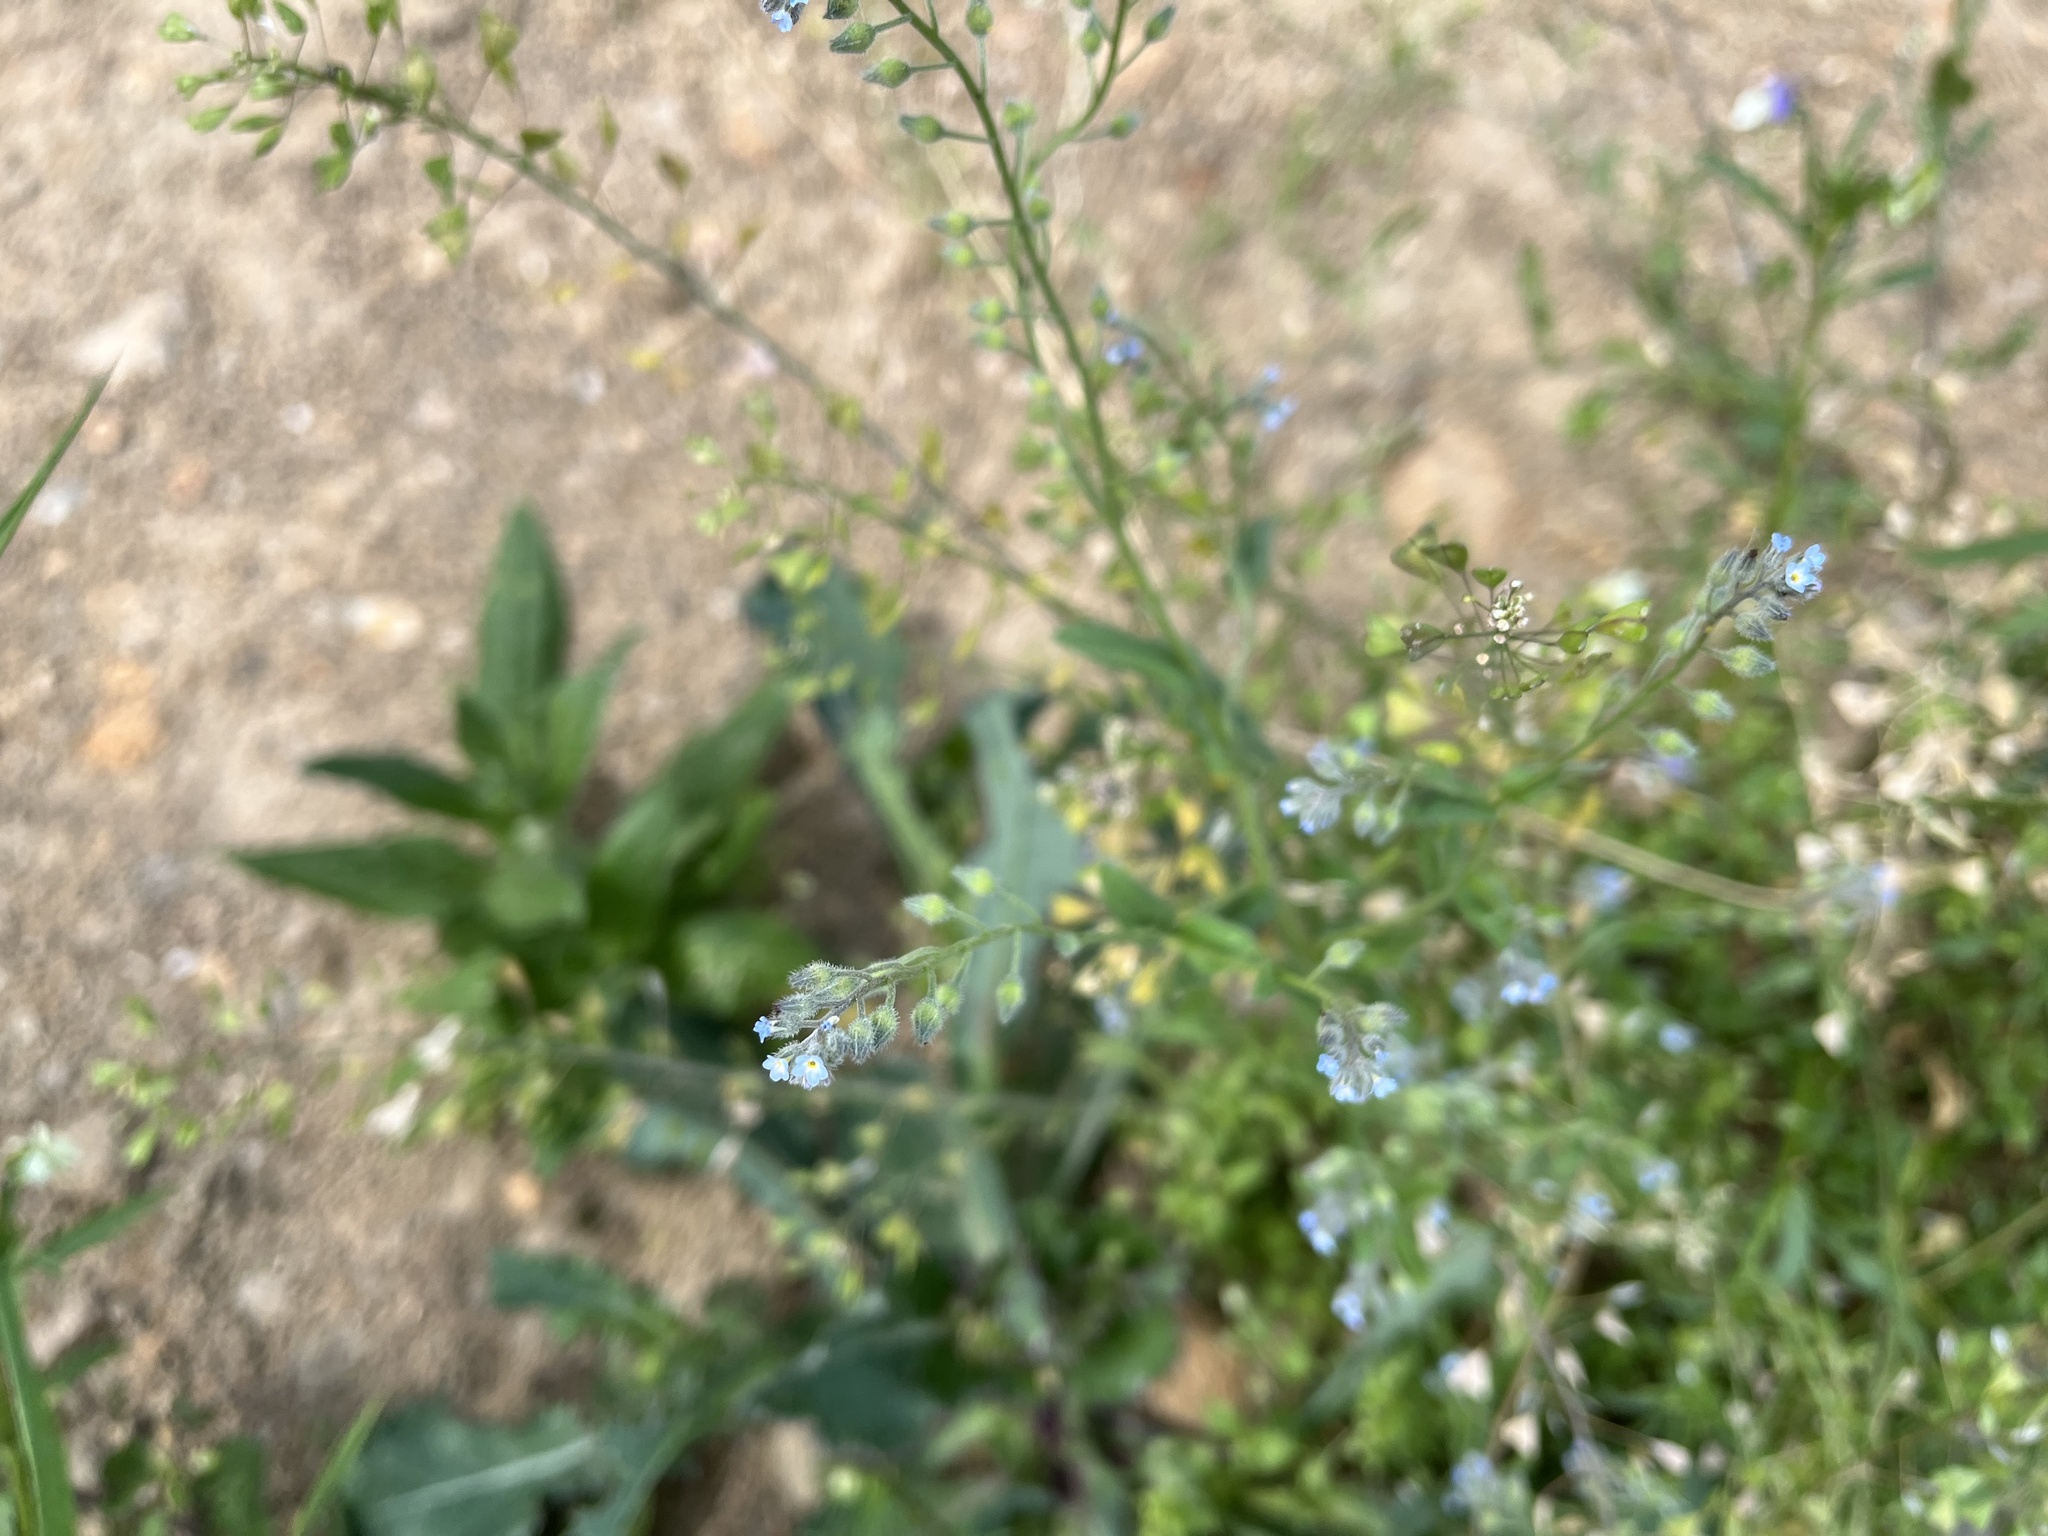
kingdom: Plantae
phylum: Tracheophyta
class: Magnoliopsida
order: Boraginales
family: Boraginaceae
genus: Myosotis
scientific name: Myosotis arvensis
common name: Field forget-me-not
